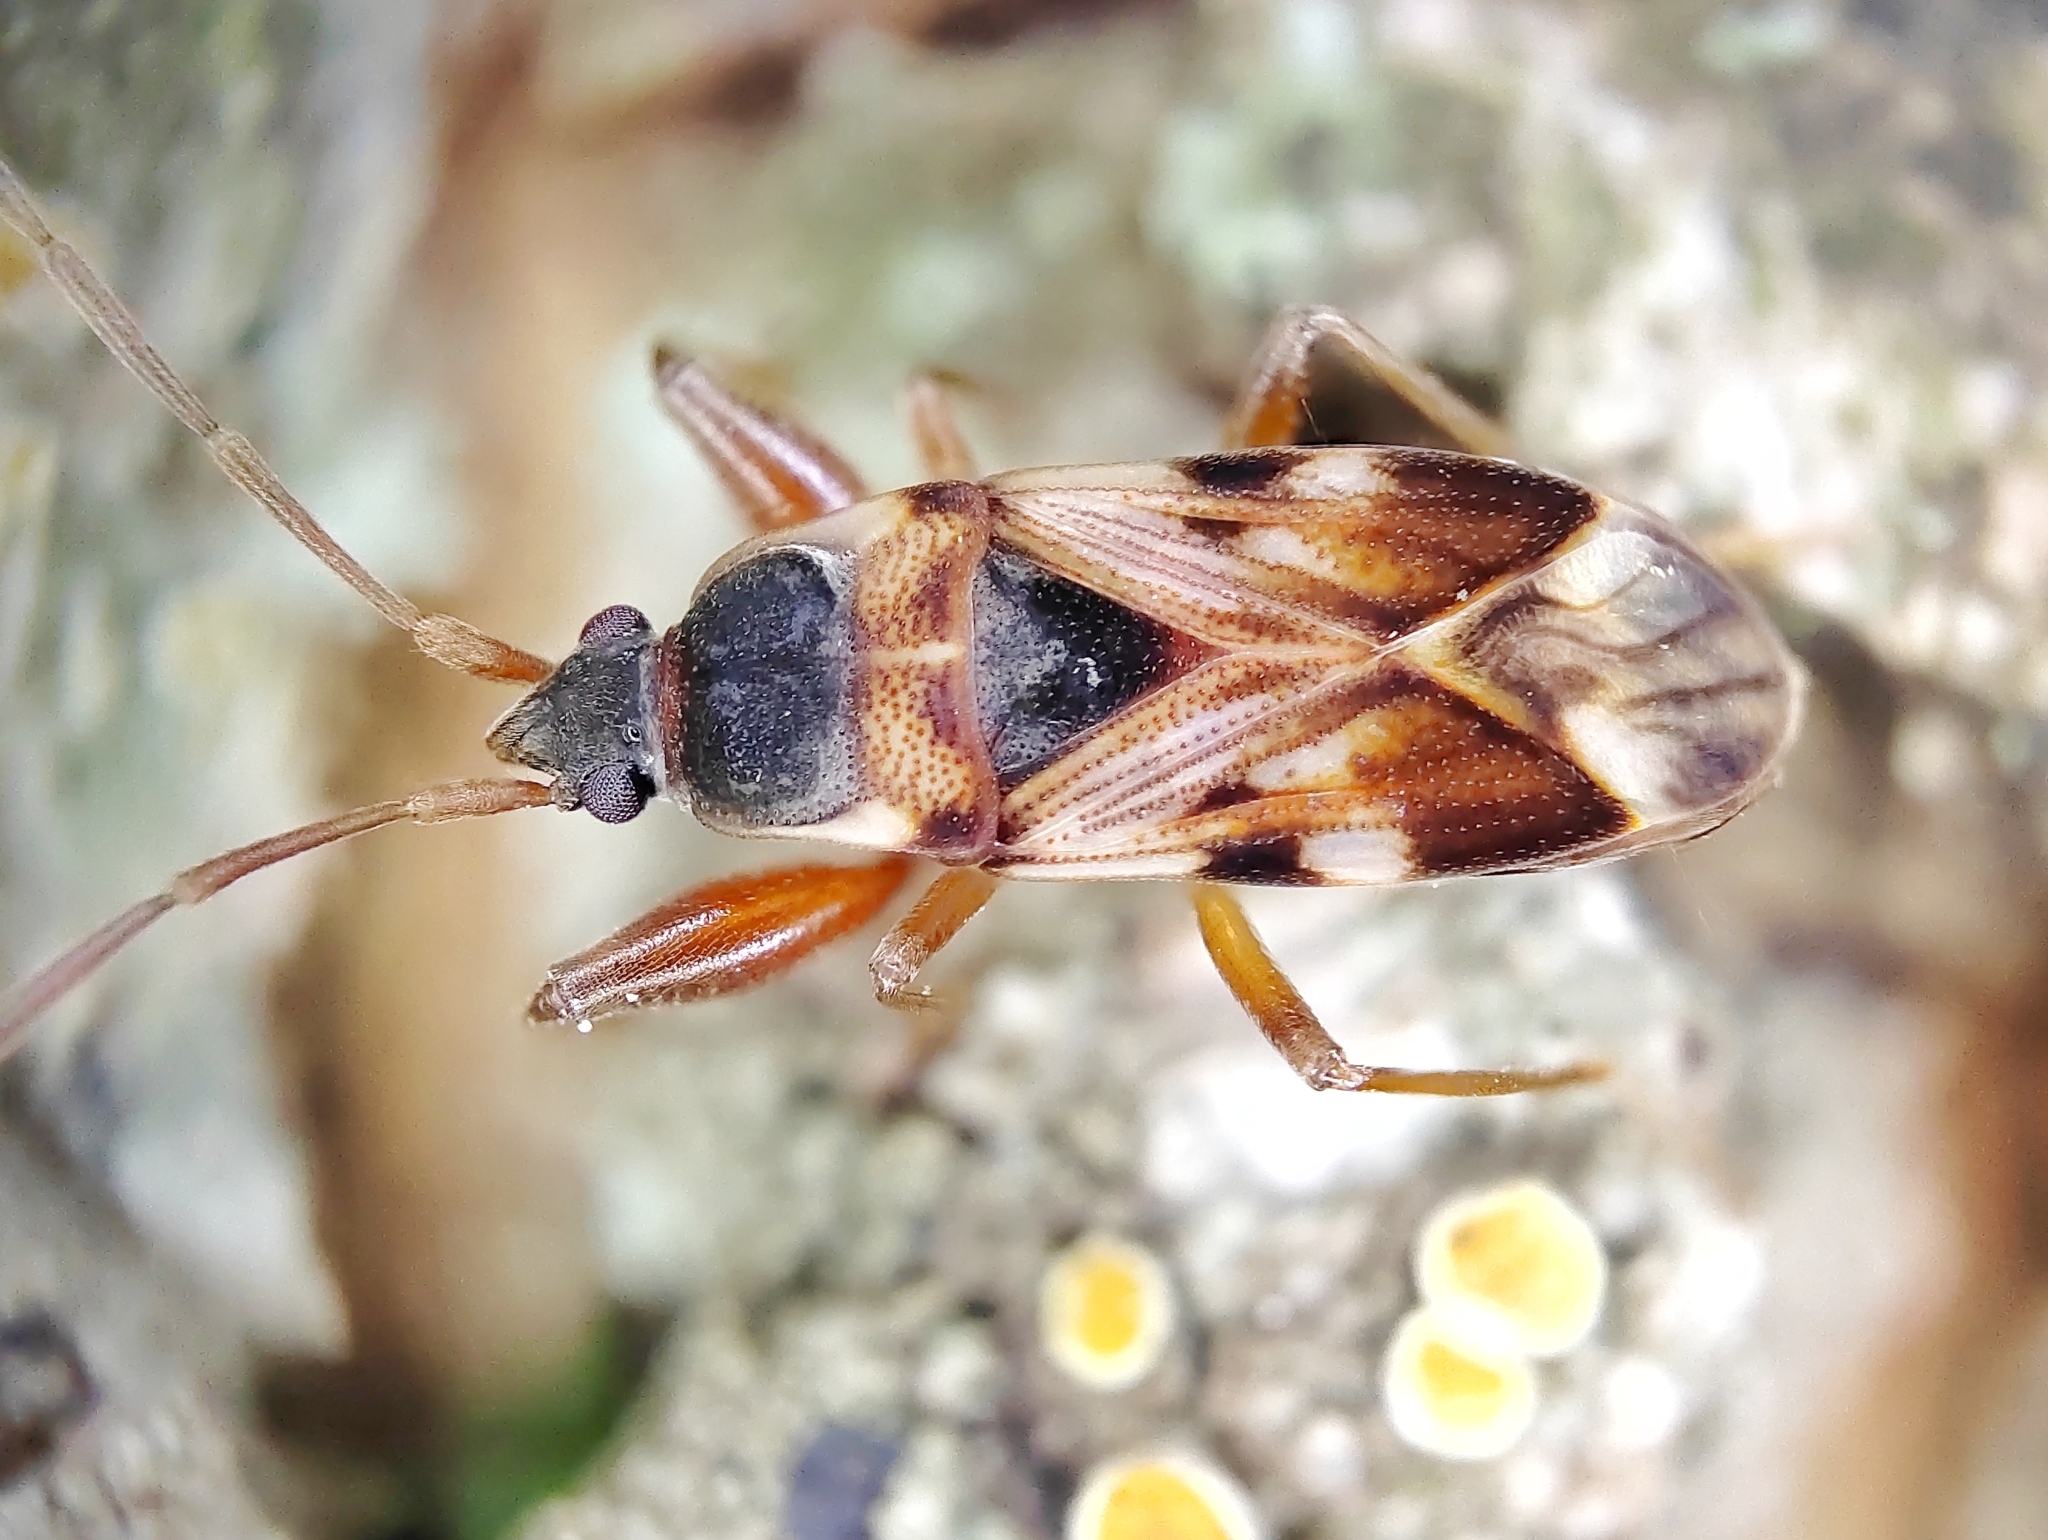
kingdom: Animalia
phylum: Arthropoda
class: Insecta
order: Hemiptera
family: Rhyparochromidae
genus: Scolopostethus
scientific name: Scolopostethus
